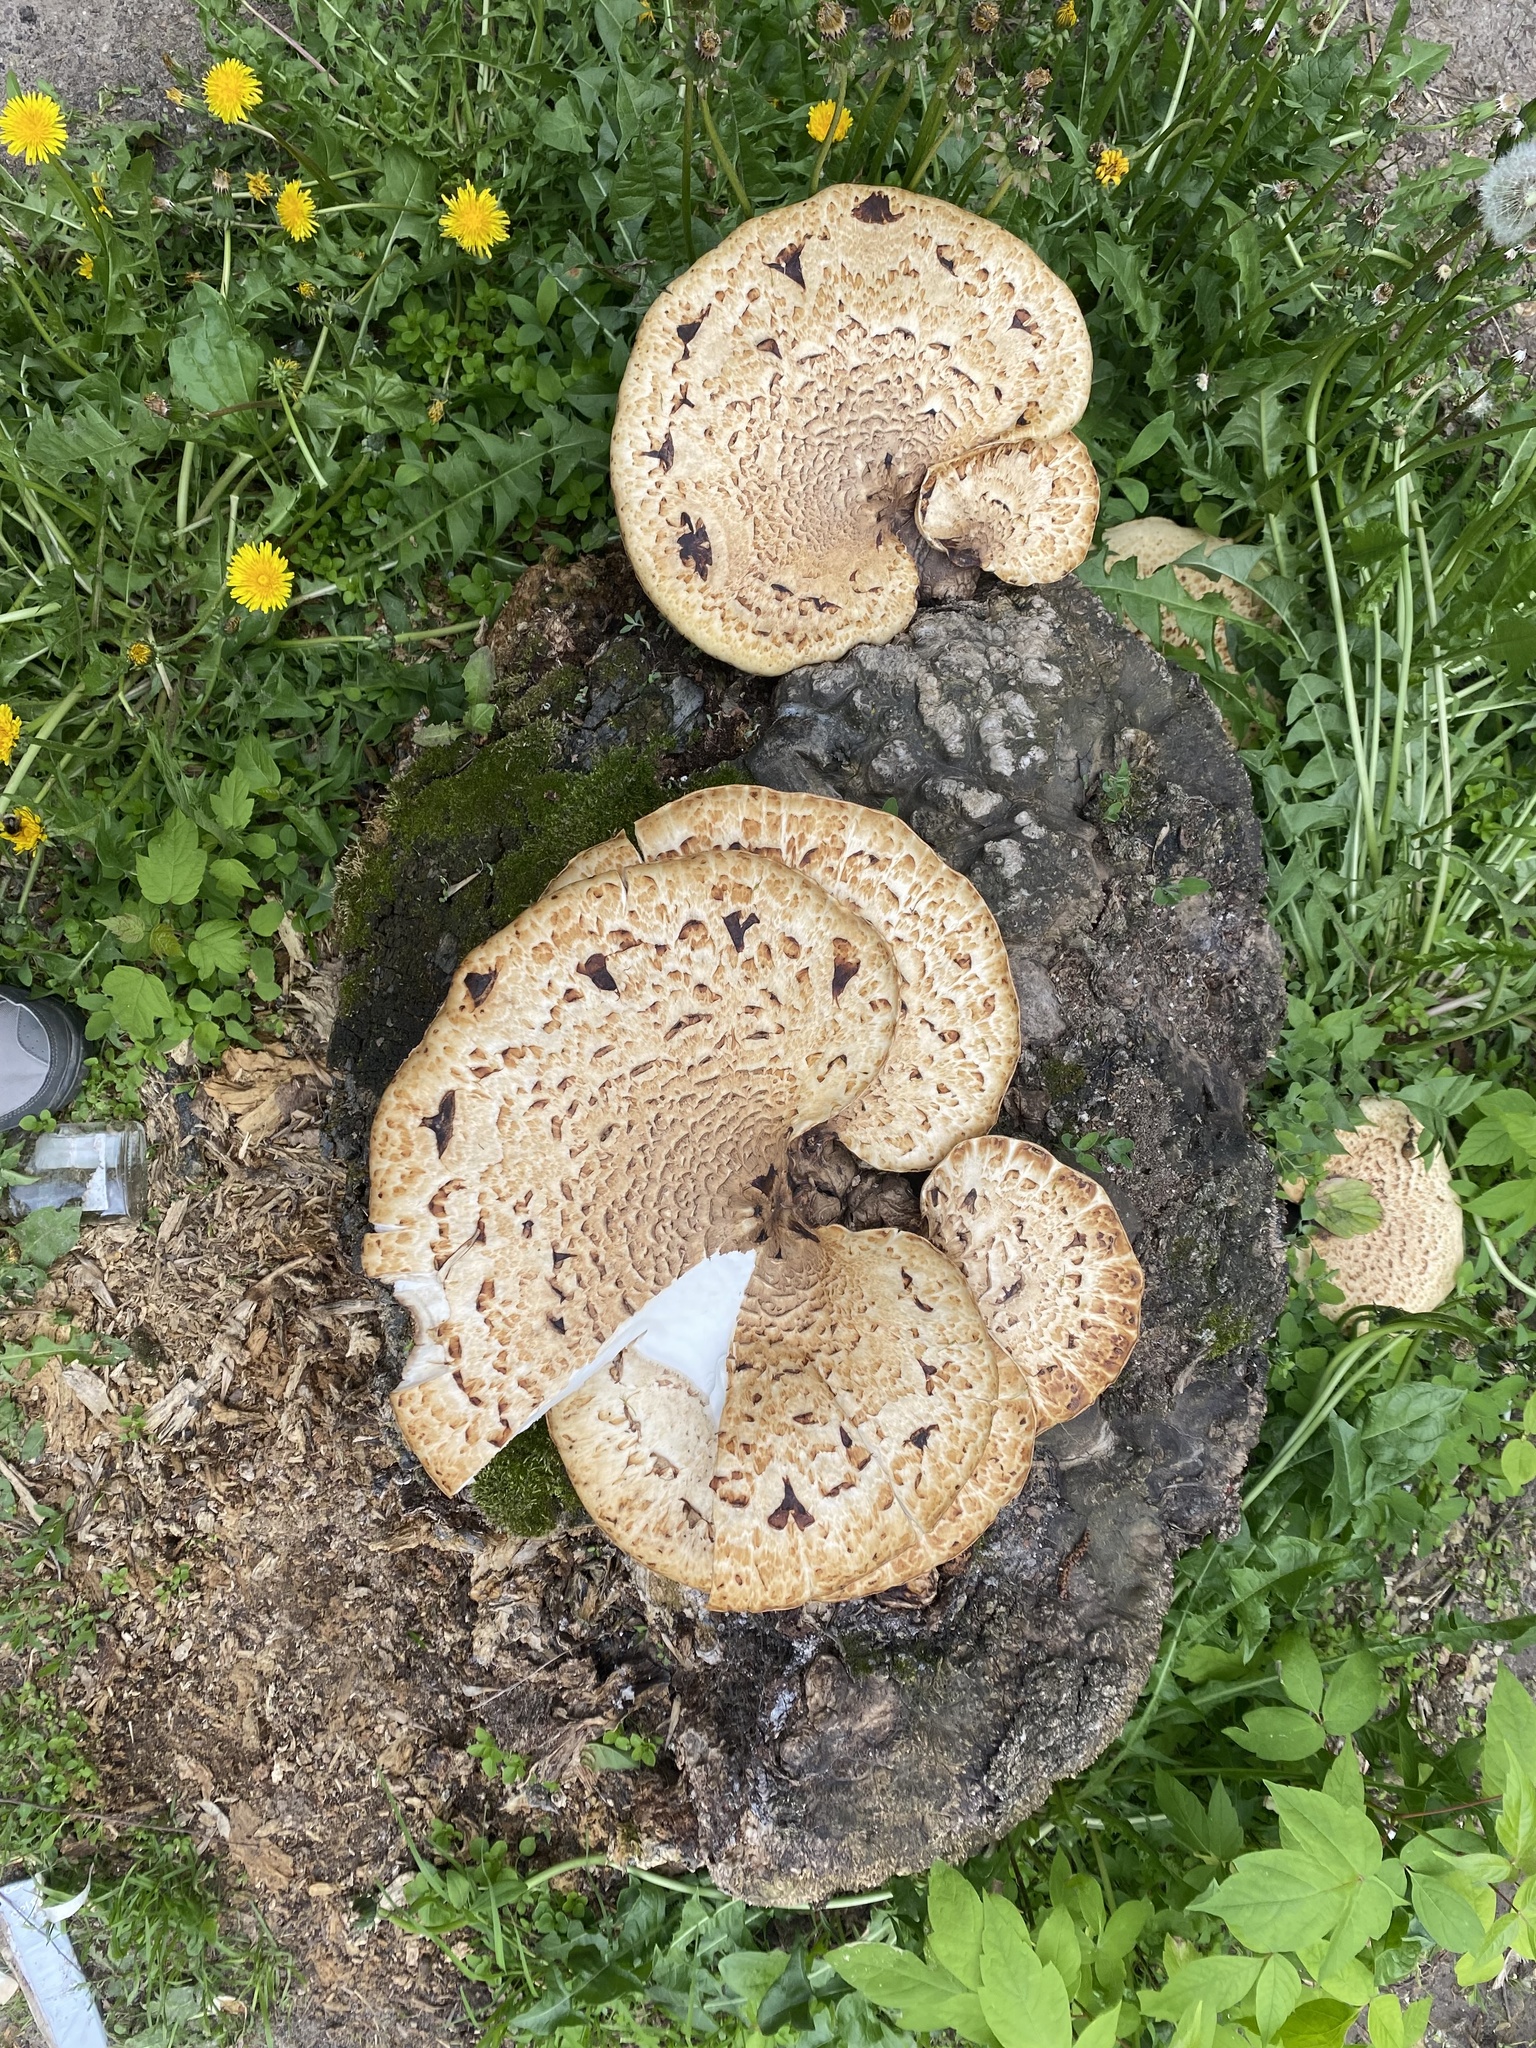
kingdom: Fungi
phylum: Basidiomycota
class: Agaricomycetes
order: Polyporales
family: Polyporaceae
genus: Cerioporus
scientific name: Cerioporus squamosus
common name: Dryad's saddle
